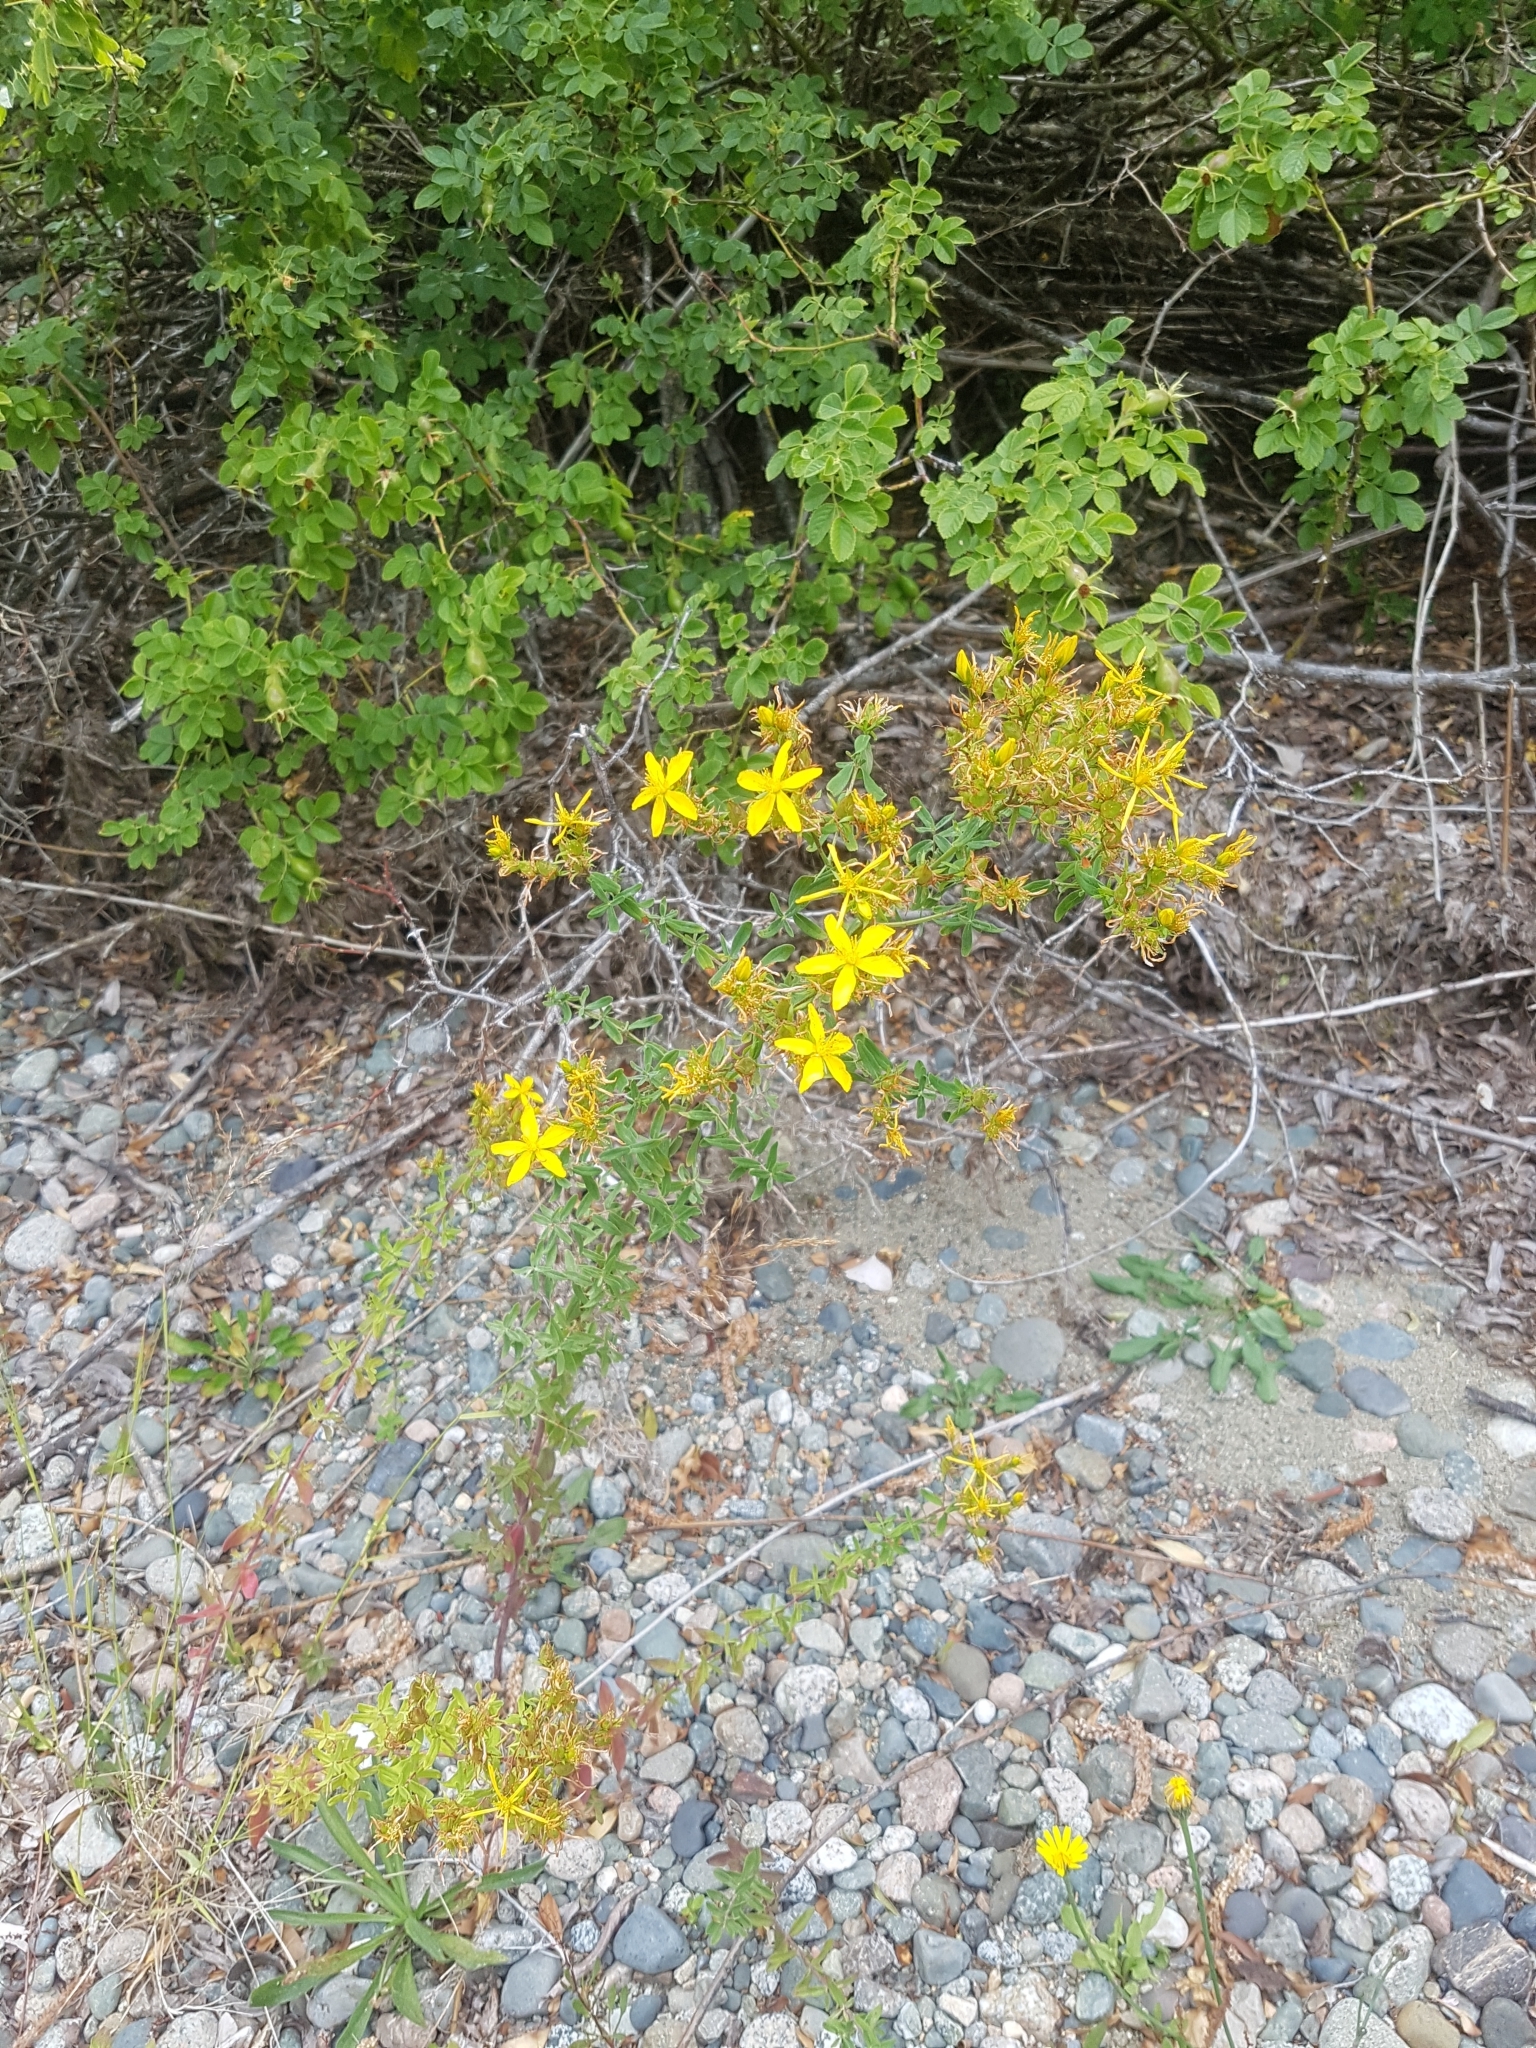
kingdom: Plantae
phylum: Tracheophyta
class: Magnoliopsida
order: Malpighiales
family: Hypericaceae
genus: Hypericum
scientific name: Hypericum perforatum
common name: Common st. johnswort
